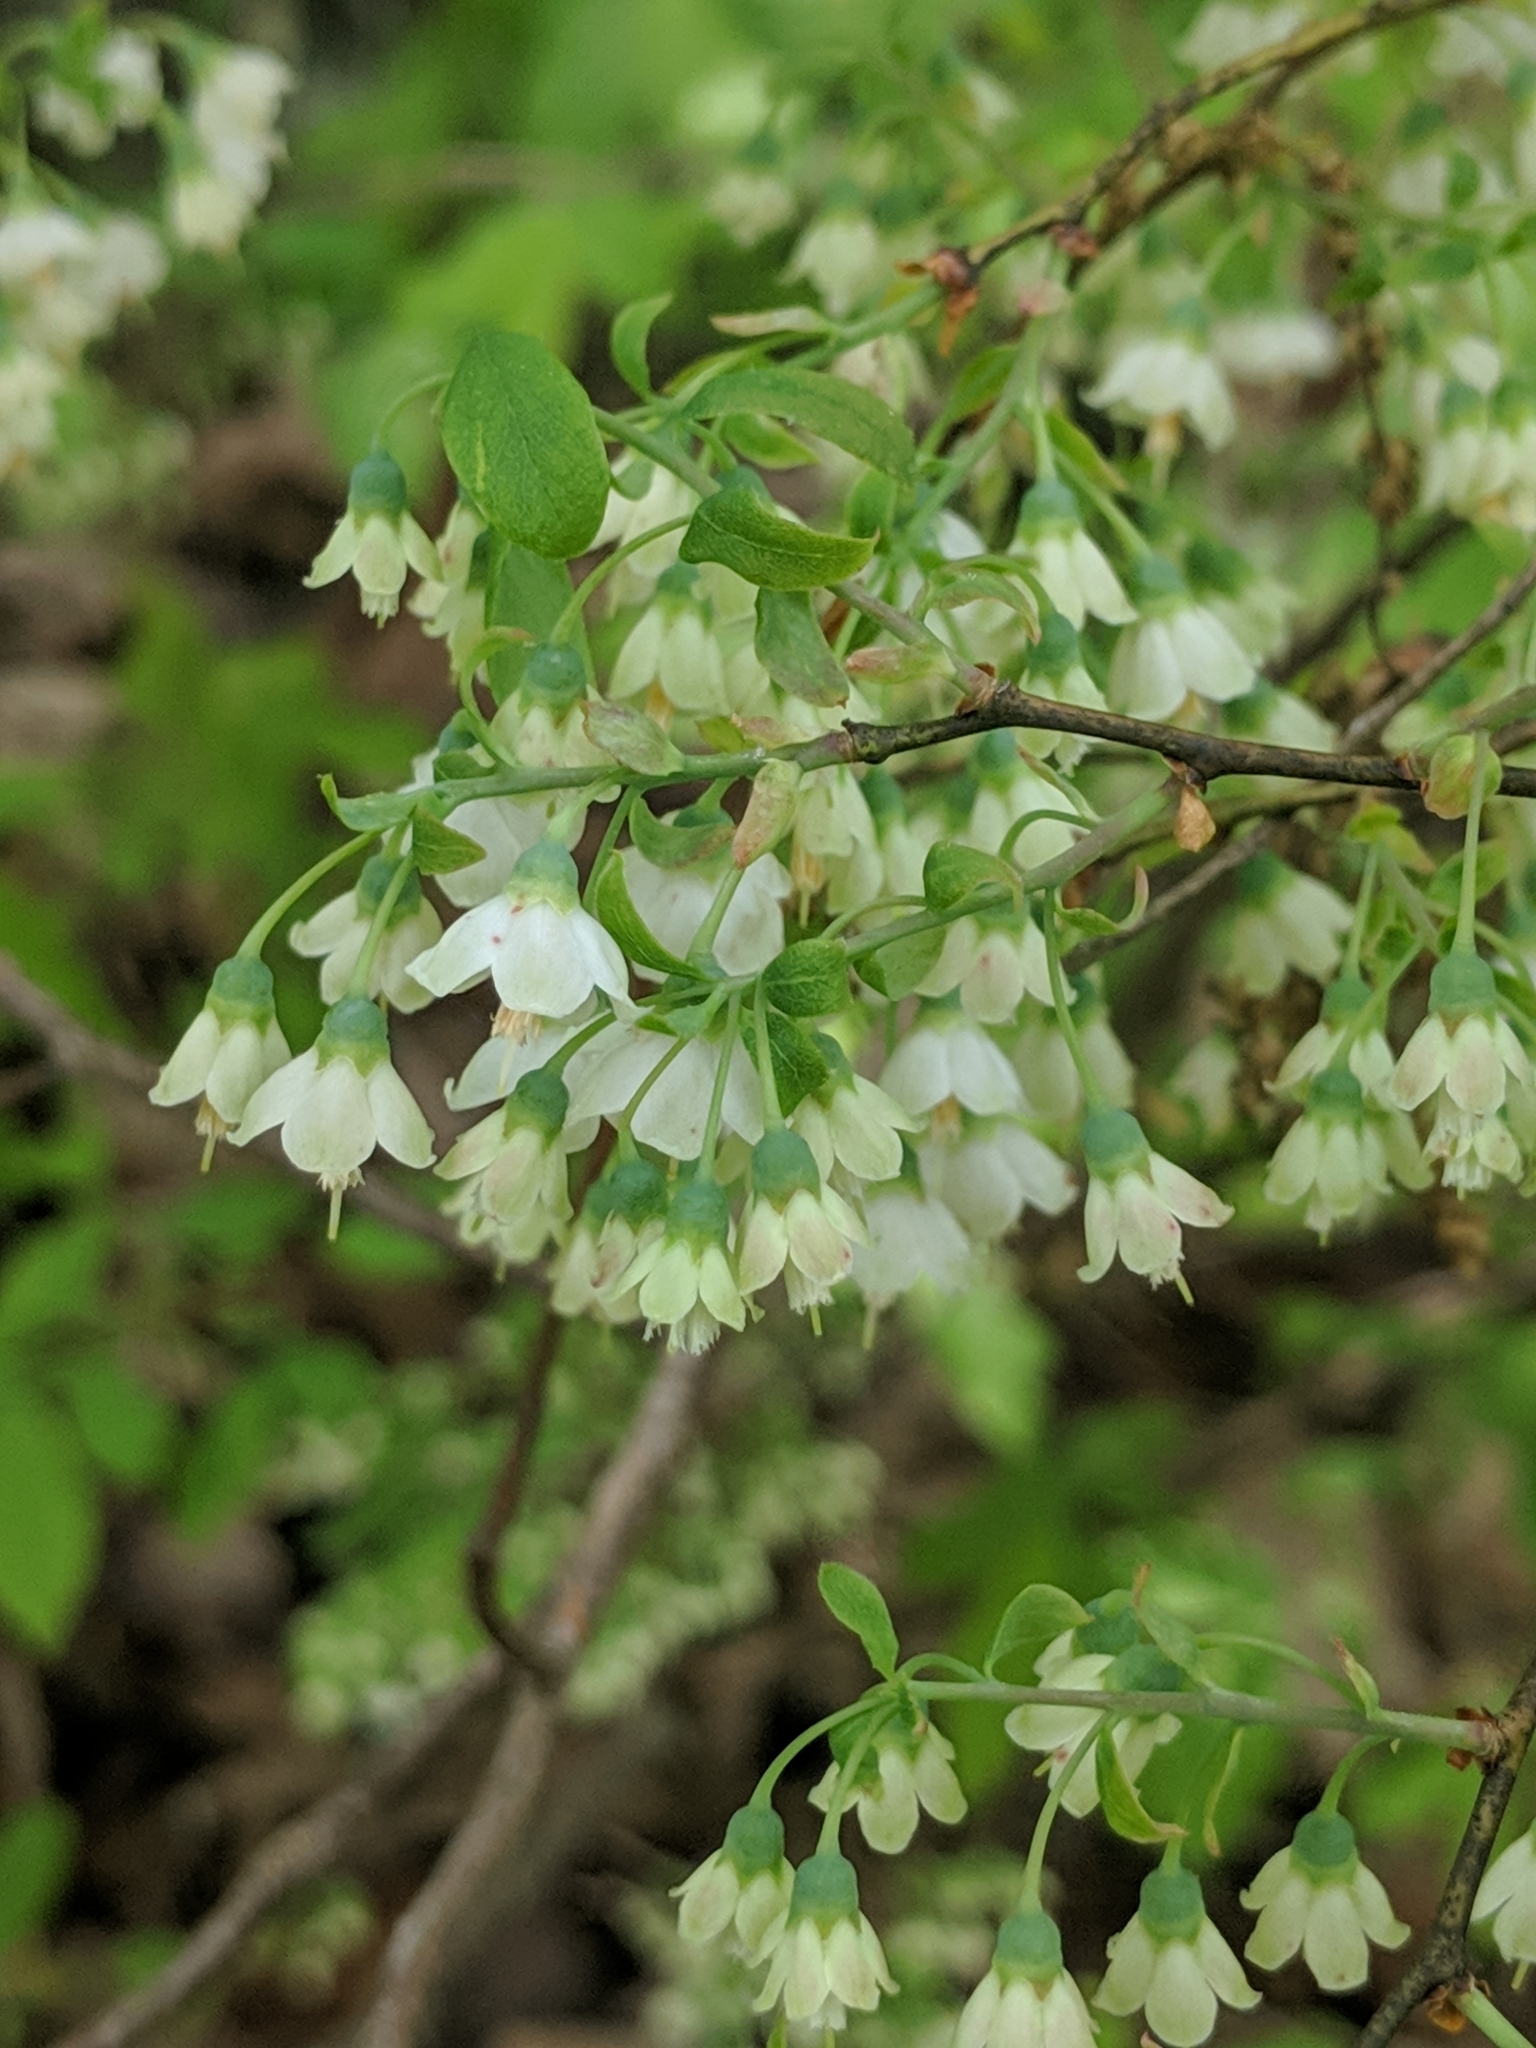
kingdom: Plantae
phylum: Tracheophyta
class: Magnoliopsida
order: Ericales
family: Ericaceae
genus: Vaccinium
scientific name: Vaccinium stamineum
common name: Deerberry
